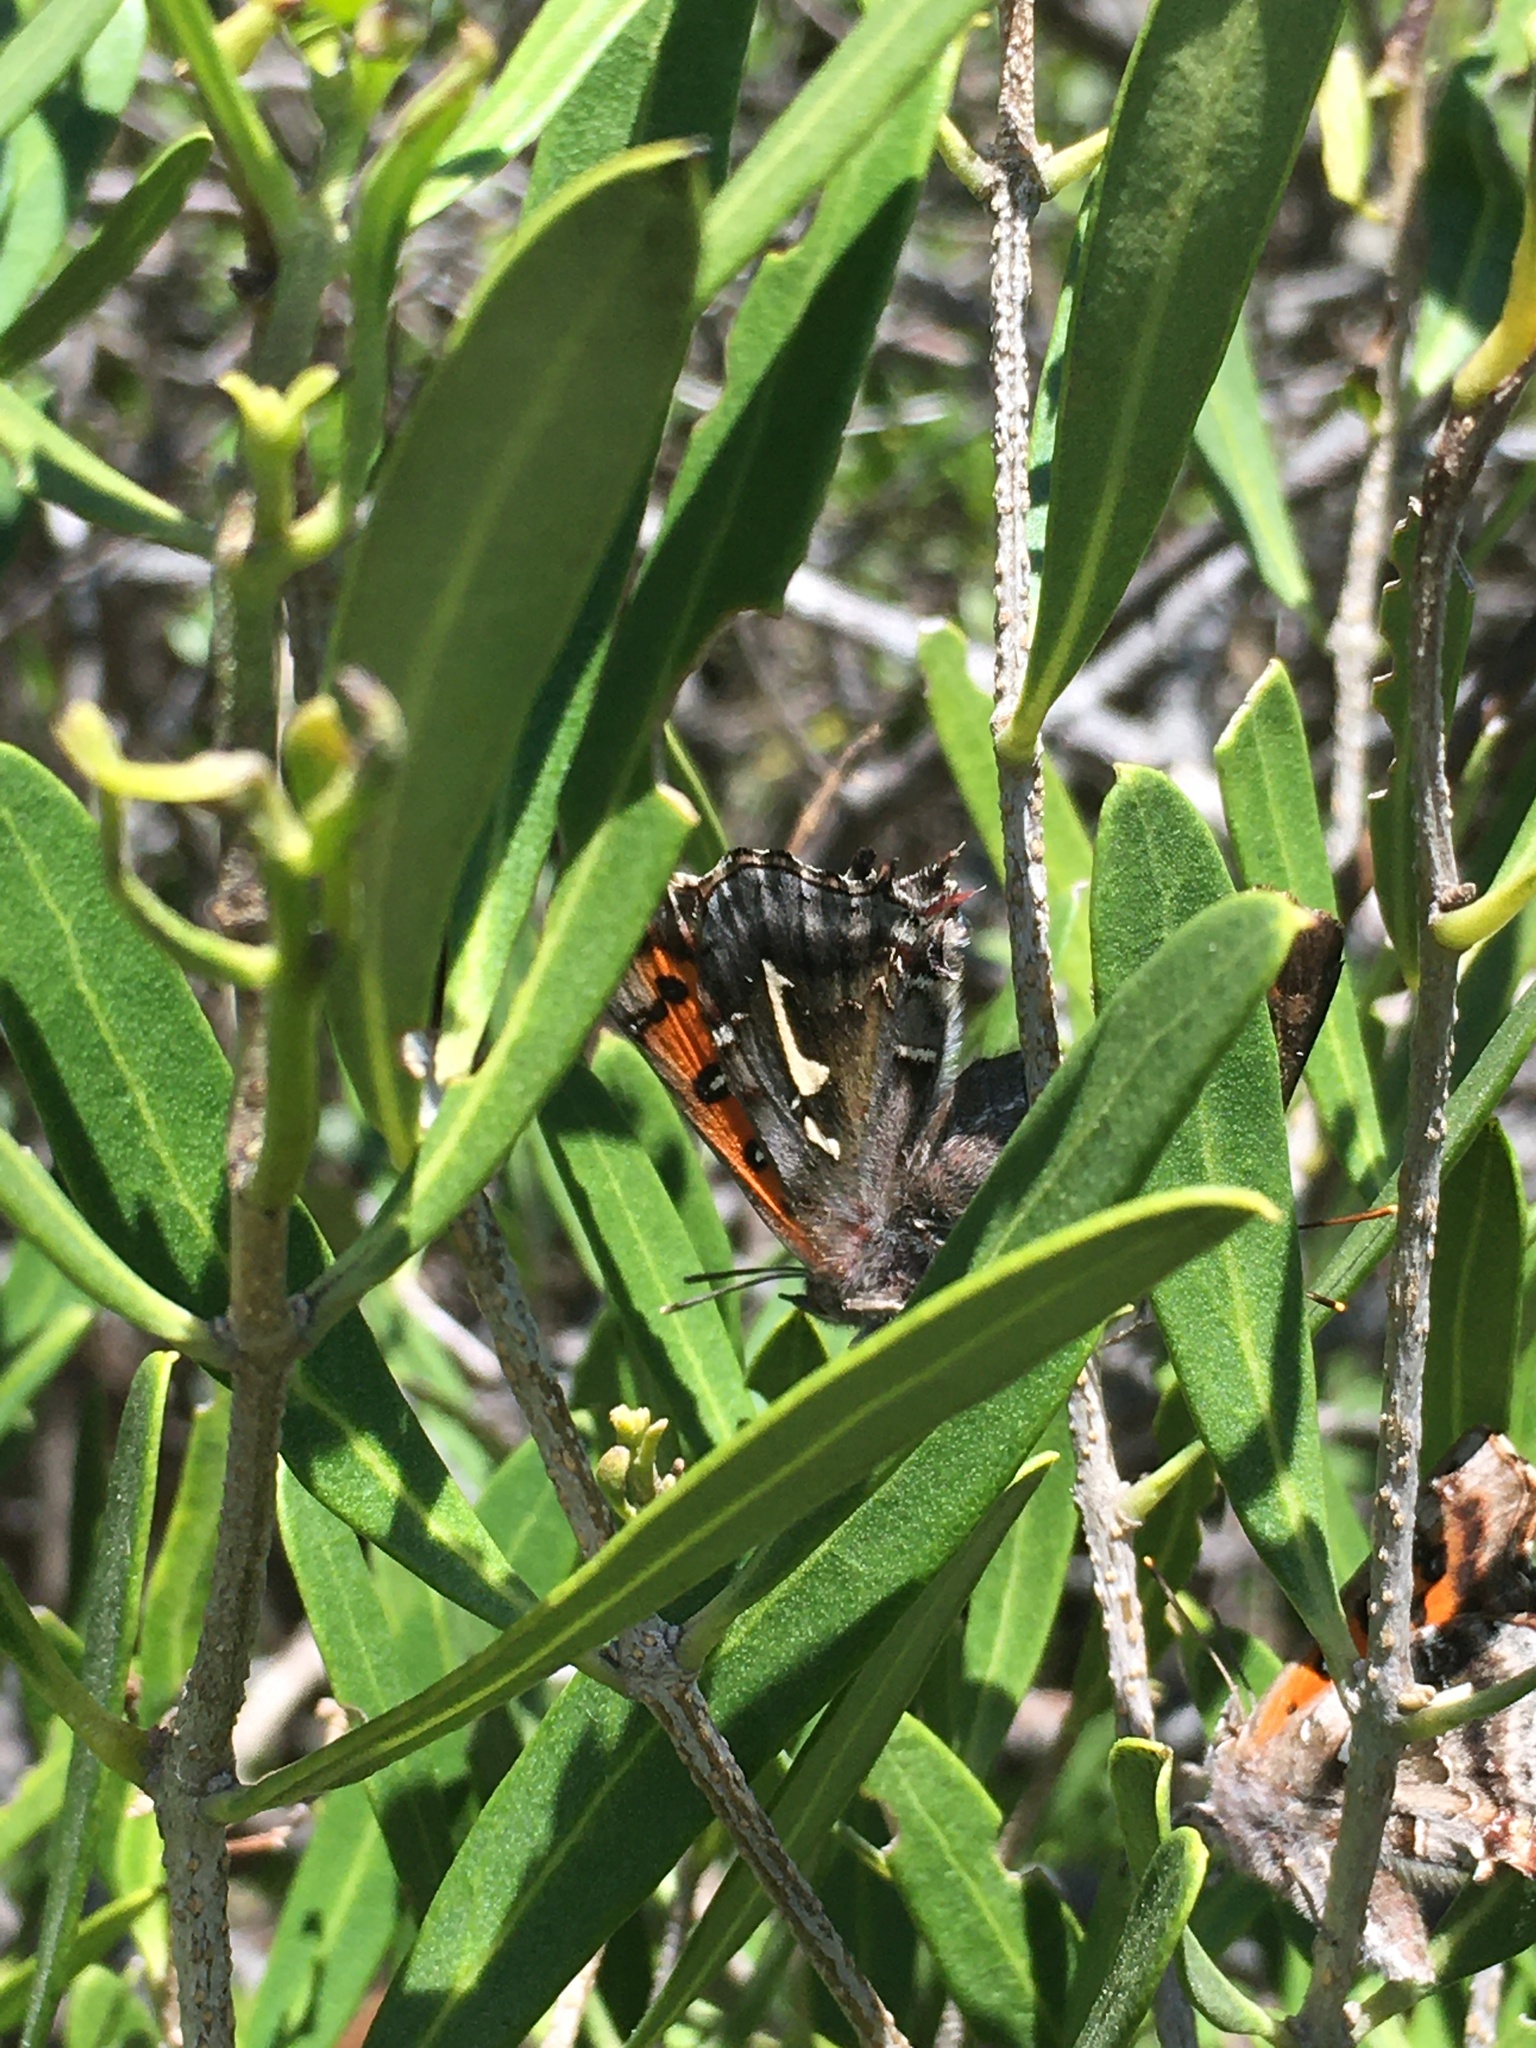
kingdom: Animalia
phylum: Arthropoda
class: Insecta
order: Lepidoptera
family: Lycaenidae
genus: Phasis
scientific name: Phasis thero
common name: Silver arrowhead
